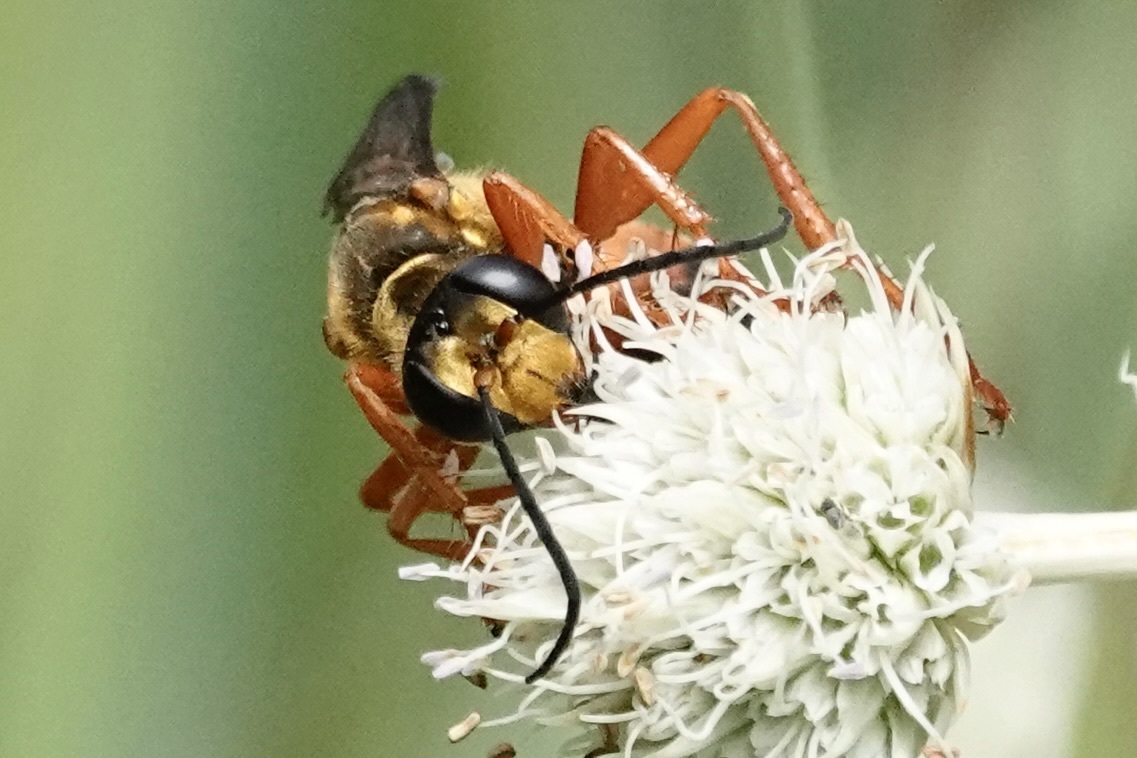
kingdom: Animalia
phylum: Arthropoda
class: Insecta
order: Hymenoptera
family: Sphecidae
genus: Sphex
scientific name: Sphex ichneumoneus
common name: Great golden digger wasp
